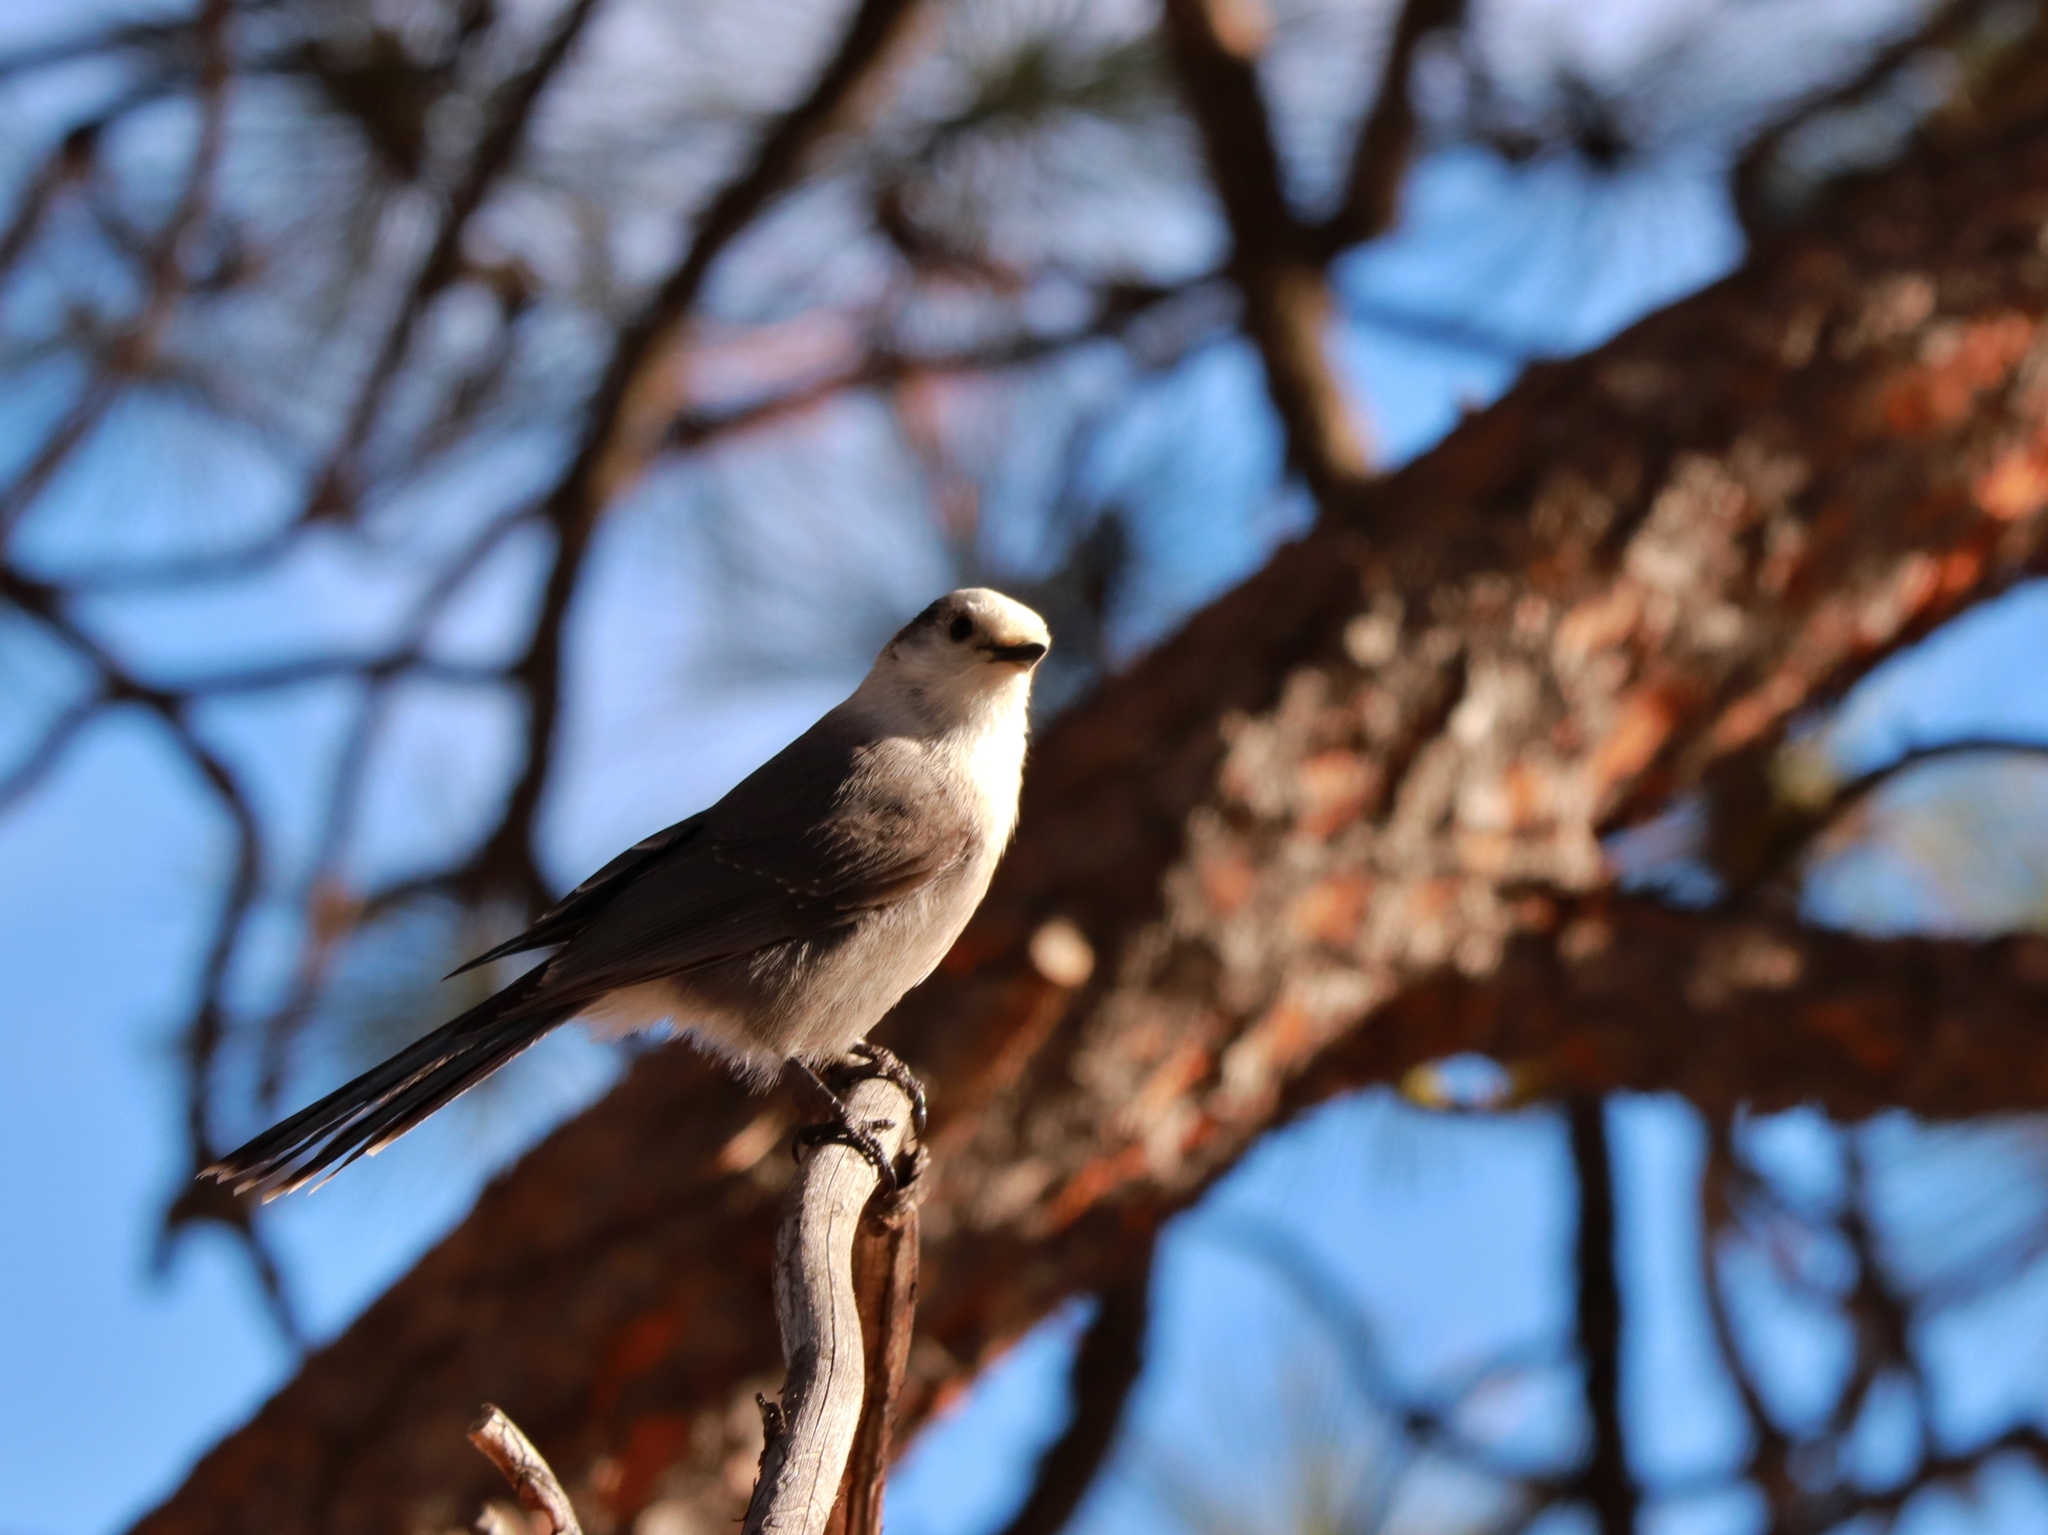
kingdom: Animalia
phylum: Chordata
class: Aves
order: Passeriformes
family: Corvidae
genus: Perisoreus
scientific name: Perisoreus canadensis
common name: Gray jay
